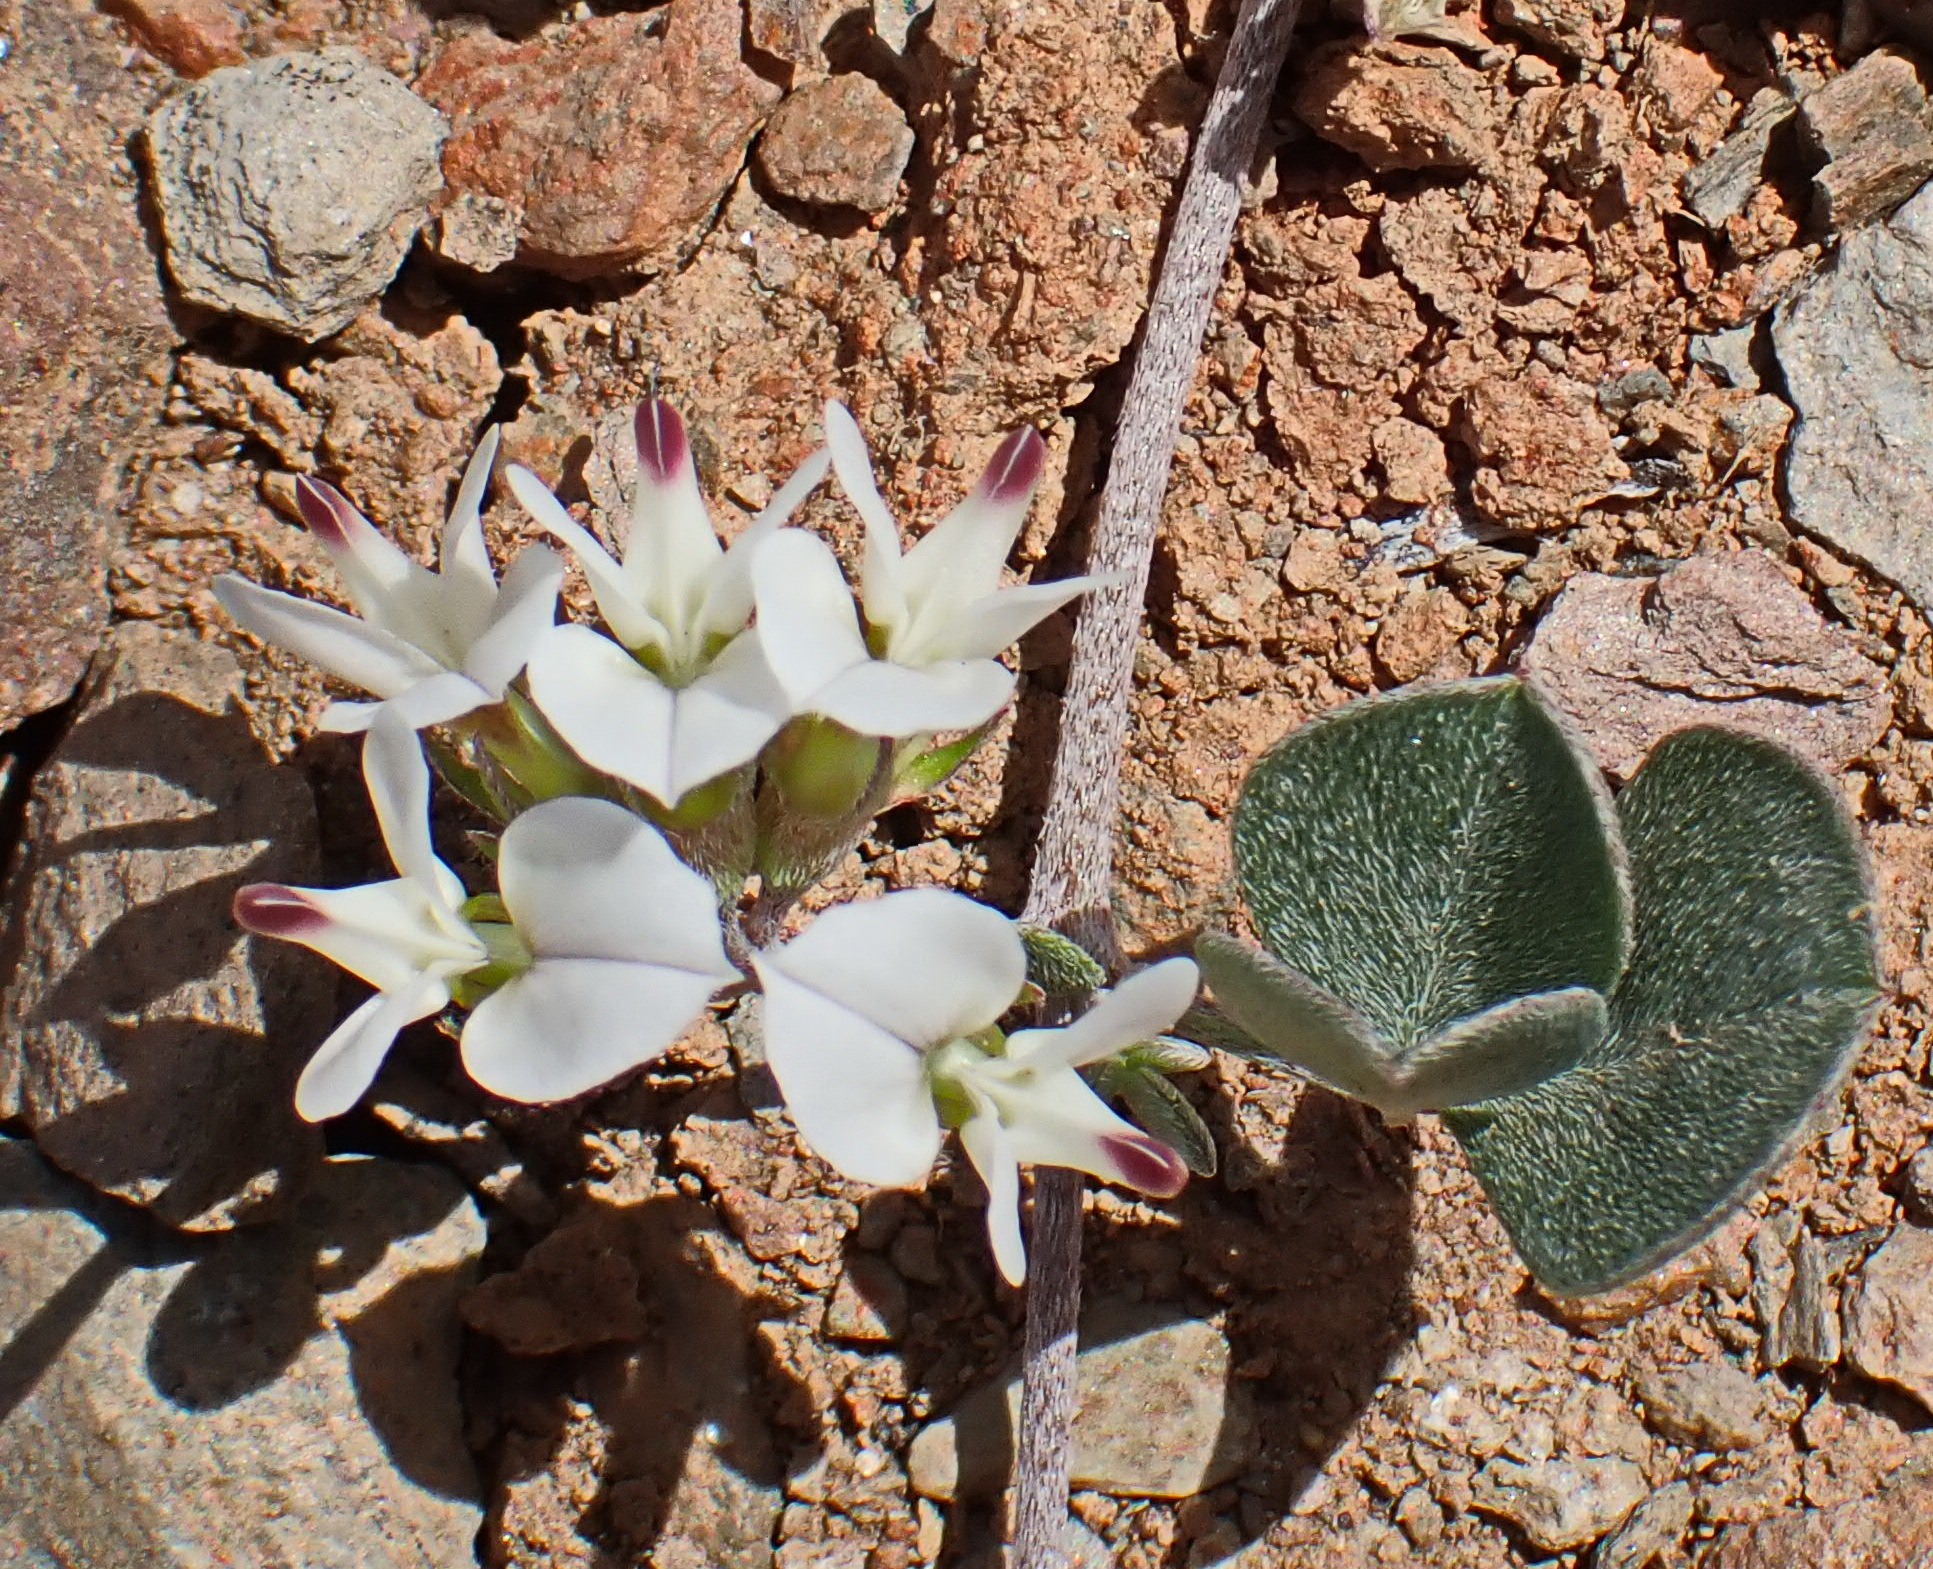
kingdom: Plantae
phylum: Tracheophyta
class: Magnoliopsida
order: Fabales
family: Fabaceae
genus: Lotononis
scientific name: Lotononis pumila
